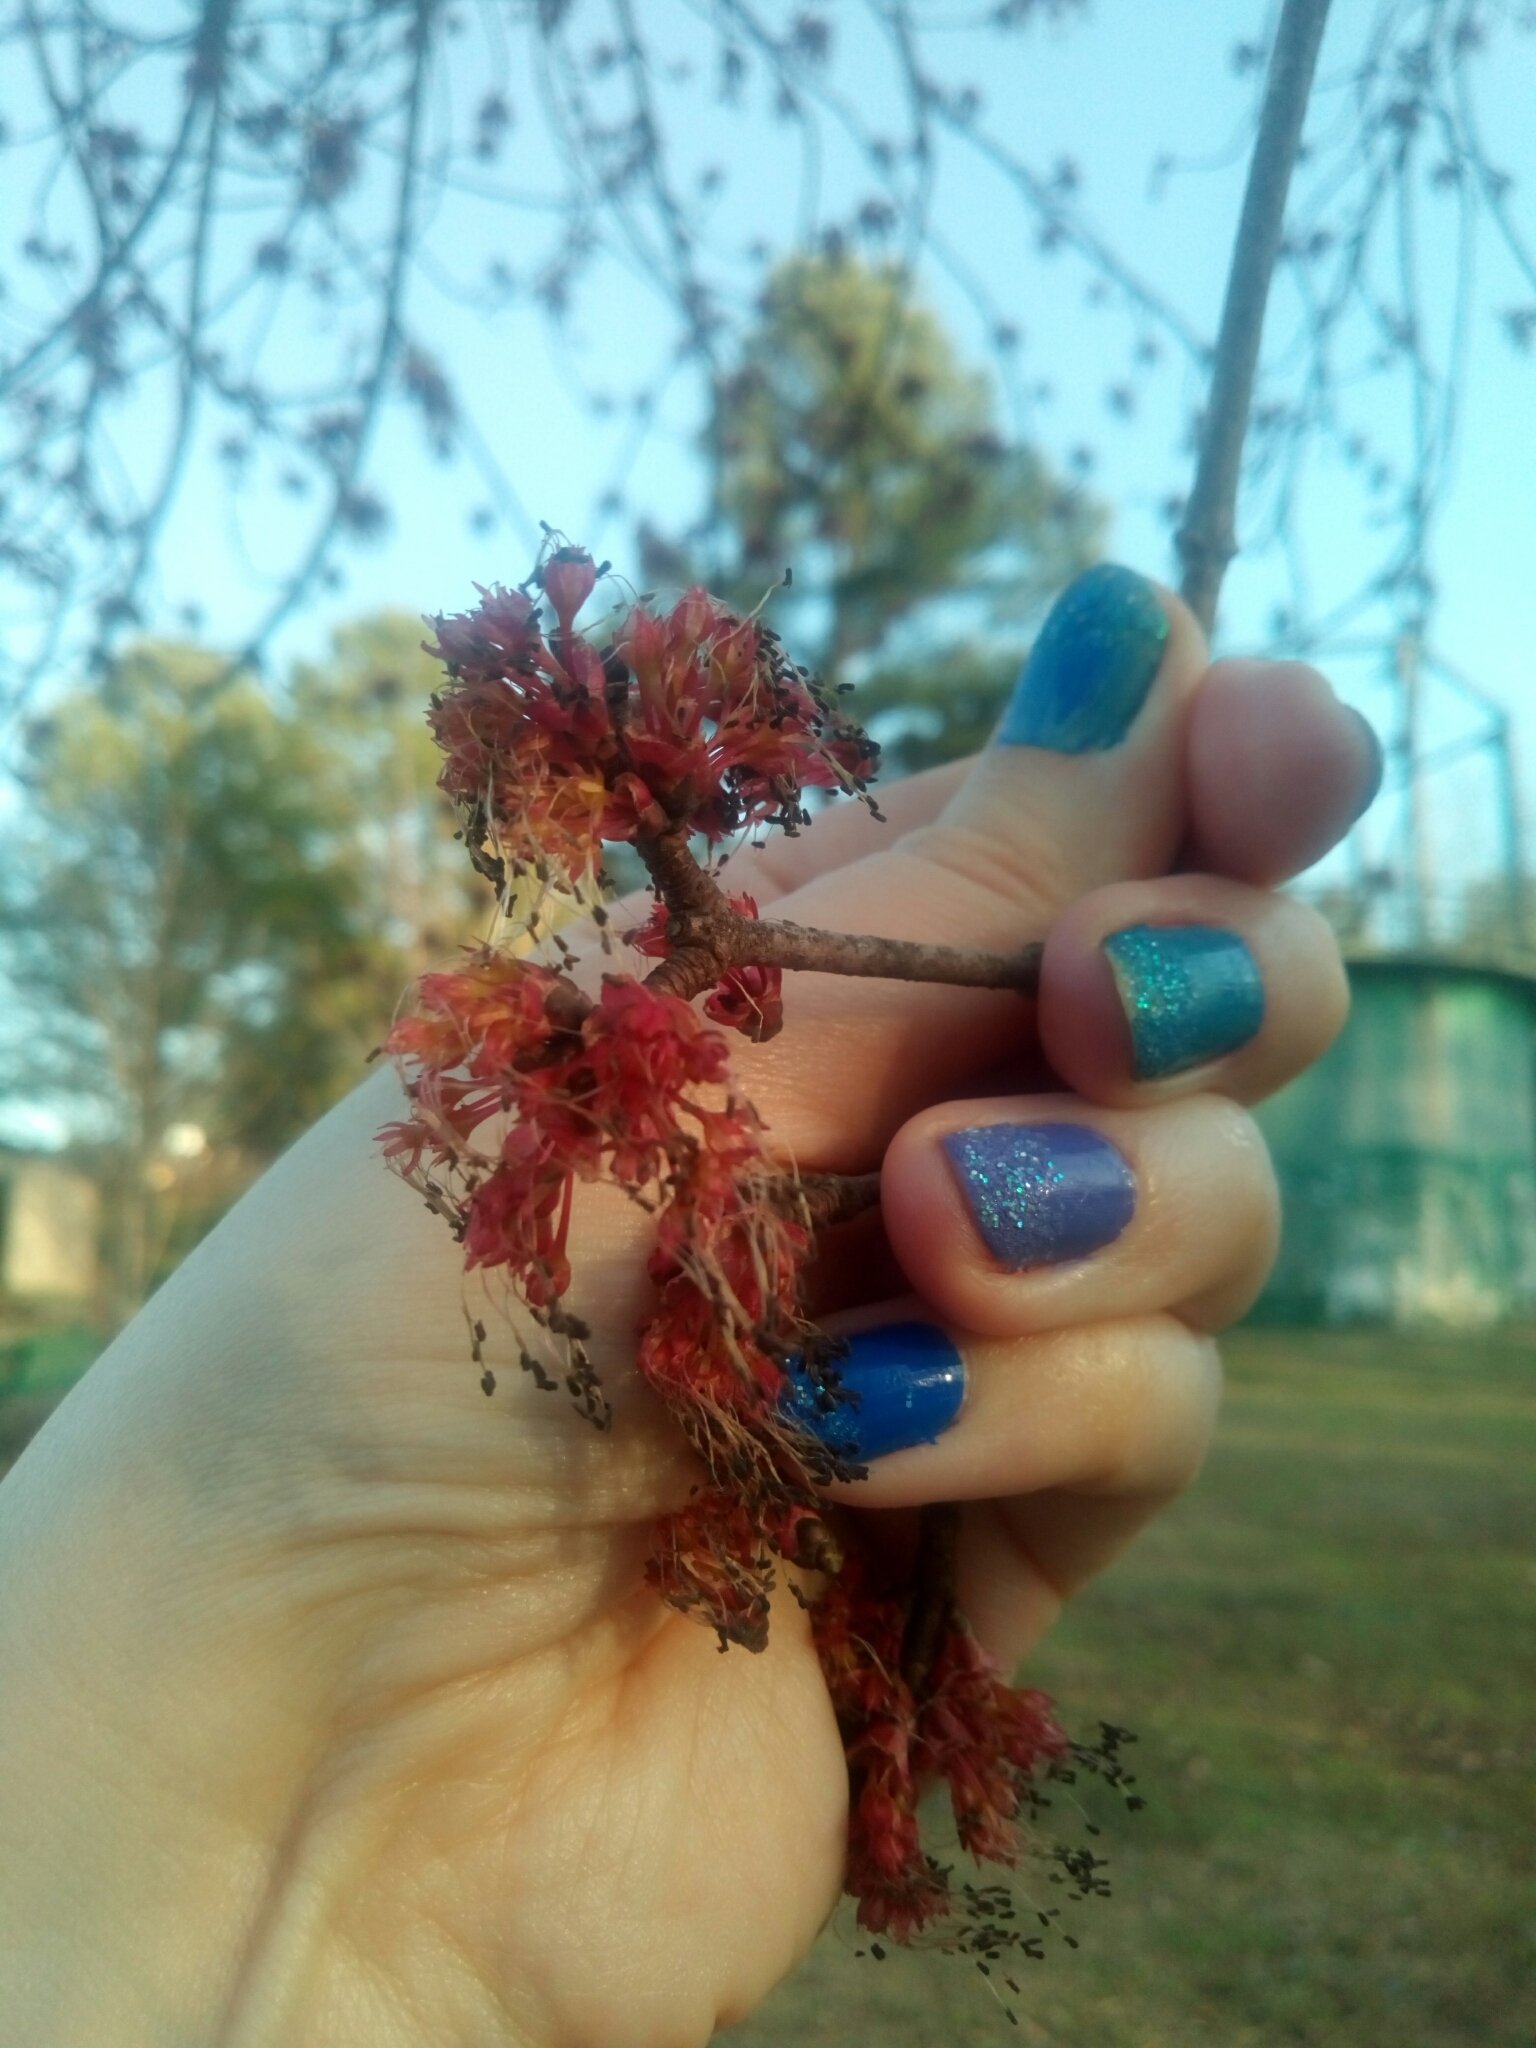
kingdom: Plantae
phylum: Tracheophyta
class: Magnoliopsida
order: Sapindales
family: Sapindaceae
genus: Acer
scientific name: Acer rubrum
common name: Red maple
